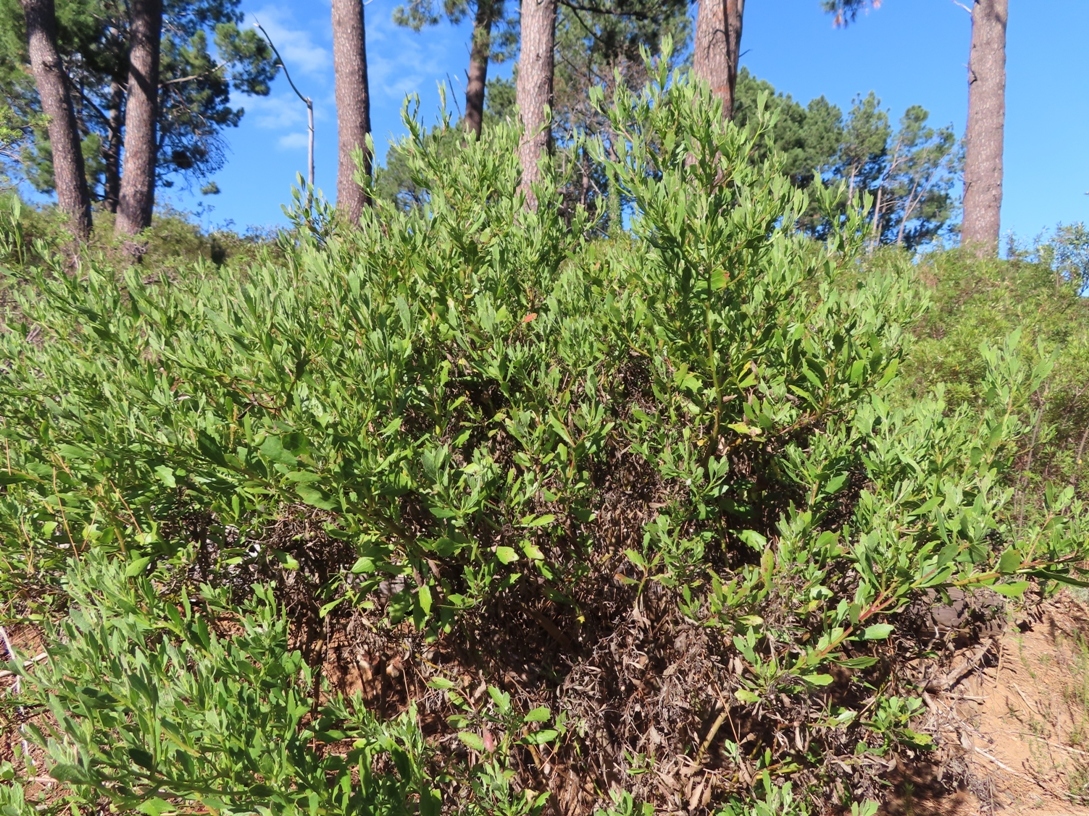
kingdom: Plantae
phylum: Tracheophyta
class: Magnoliopsida
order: Asterales
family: Asteraceae
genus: Osteospermum
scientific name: Osteospermum moniliferum
